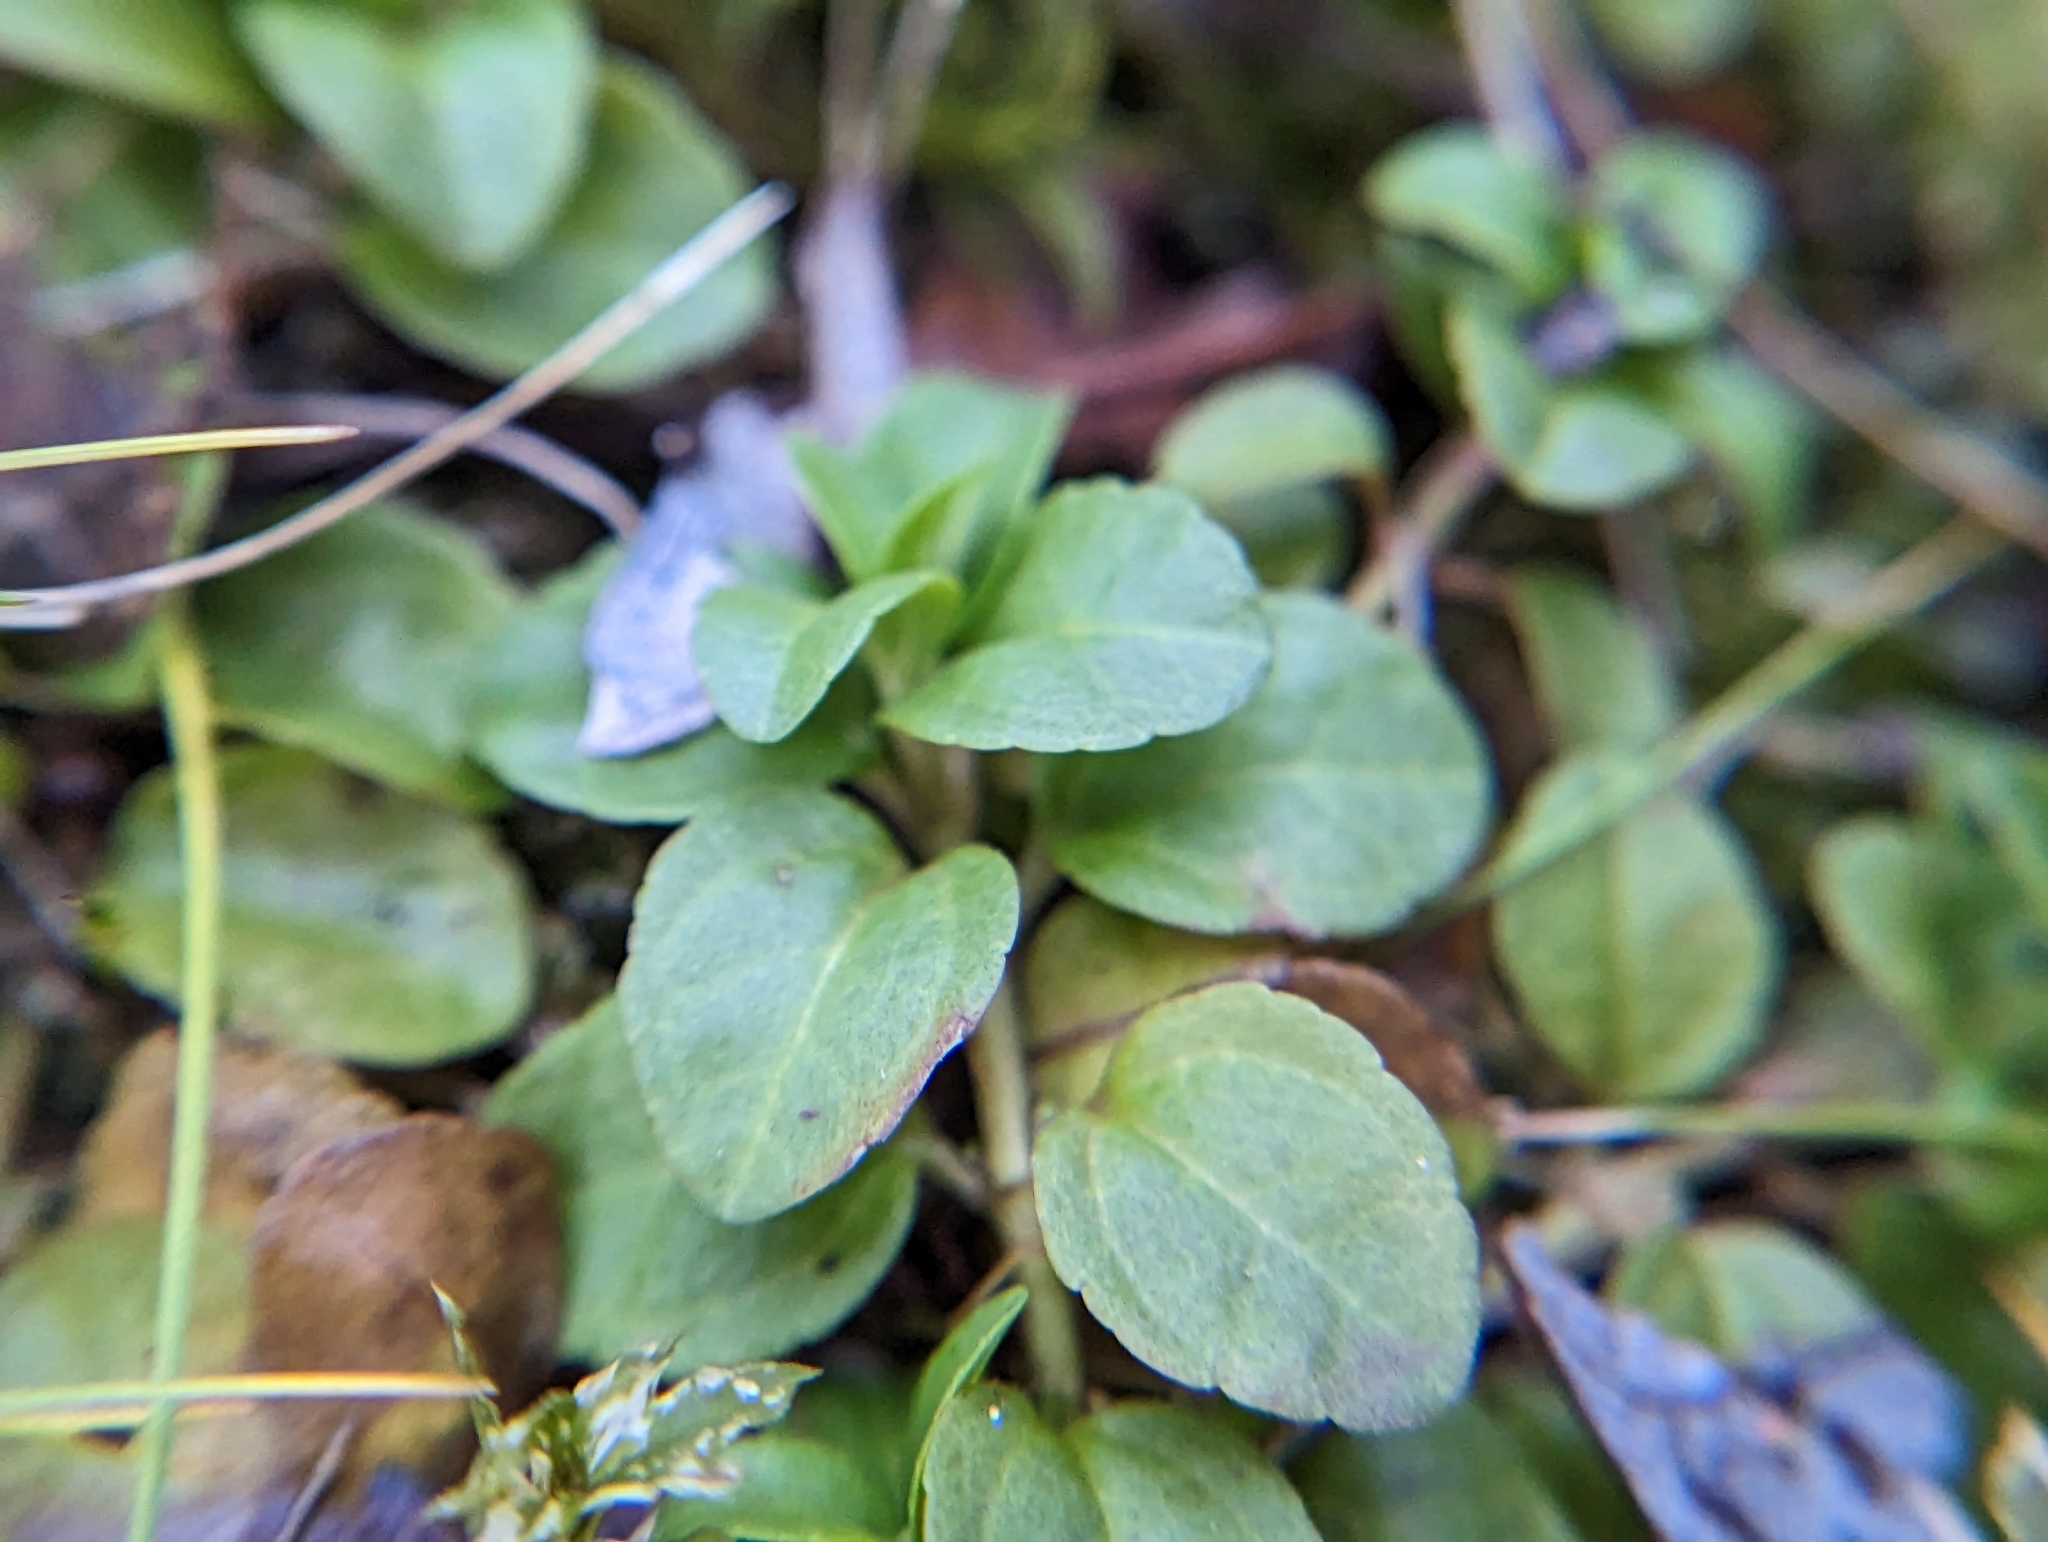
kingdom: Plantae
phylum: Tracheophyta
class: Magnoliopsida
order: Lamiales
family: Plantaginaceae
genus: Veronica
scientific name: Veronica serpyllifolia
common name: Thyme-leaved speedwell
